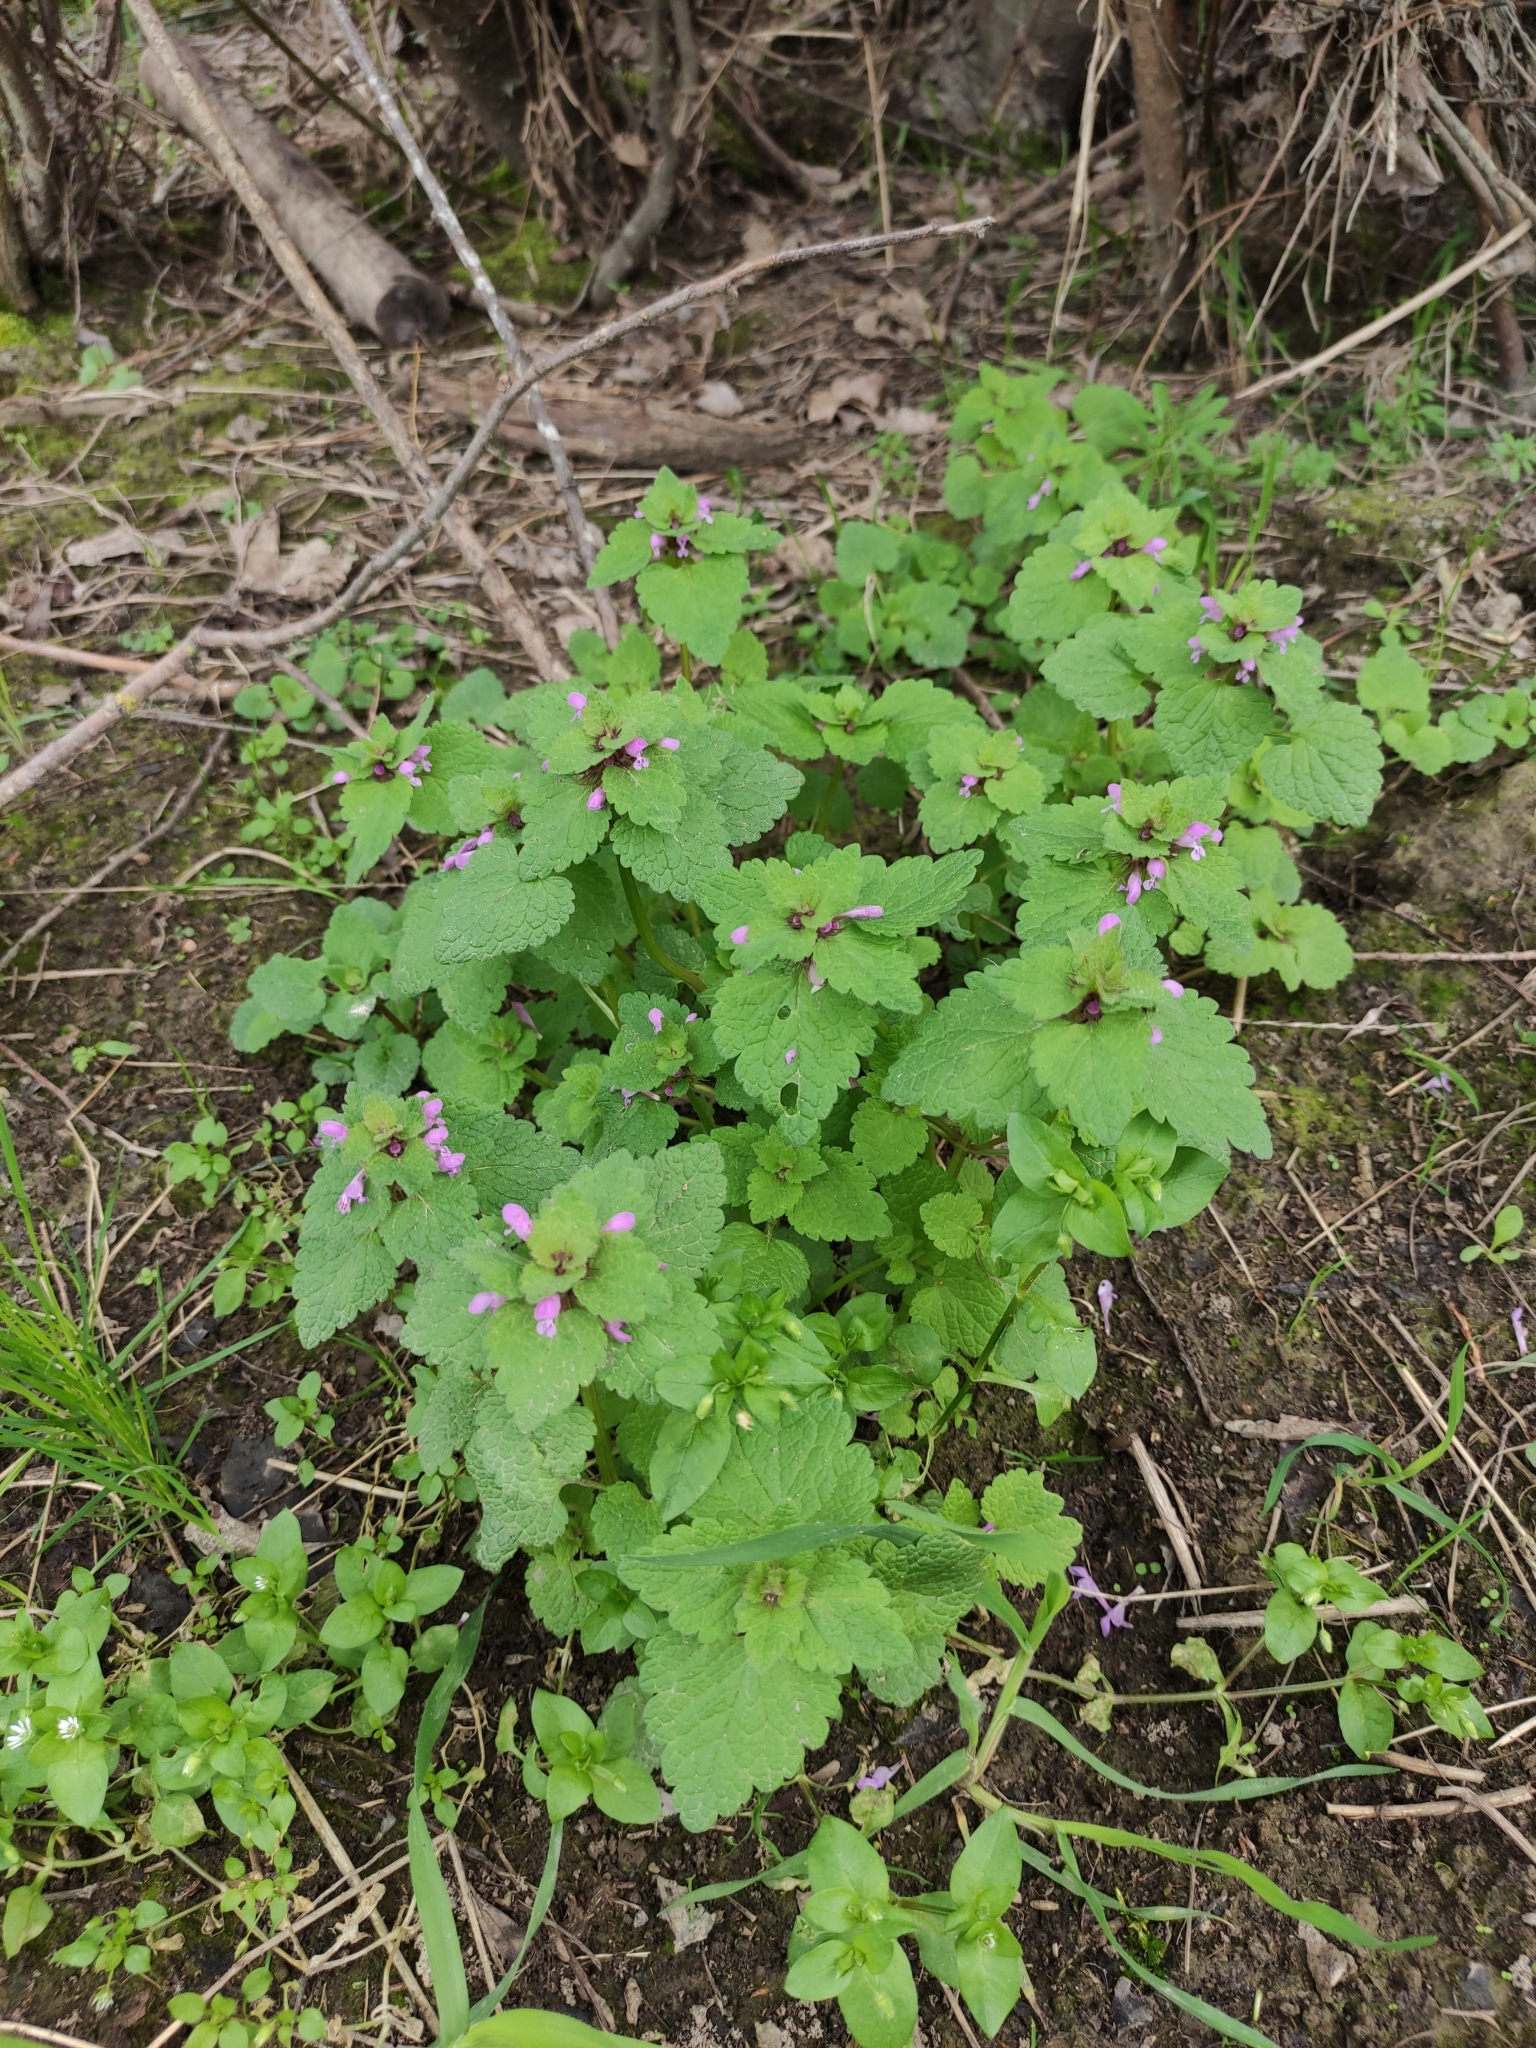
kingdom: Plantae
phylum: Tracheophyta
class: Magnoliopsida
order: Lamiales
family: Lamiaceae
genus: Lamium
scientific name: Lamium purpureum
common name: Red dead-nettle
